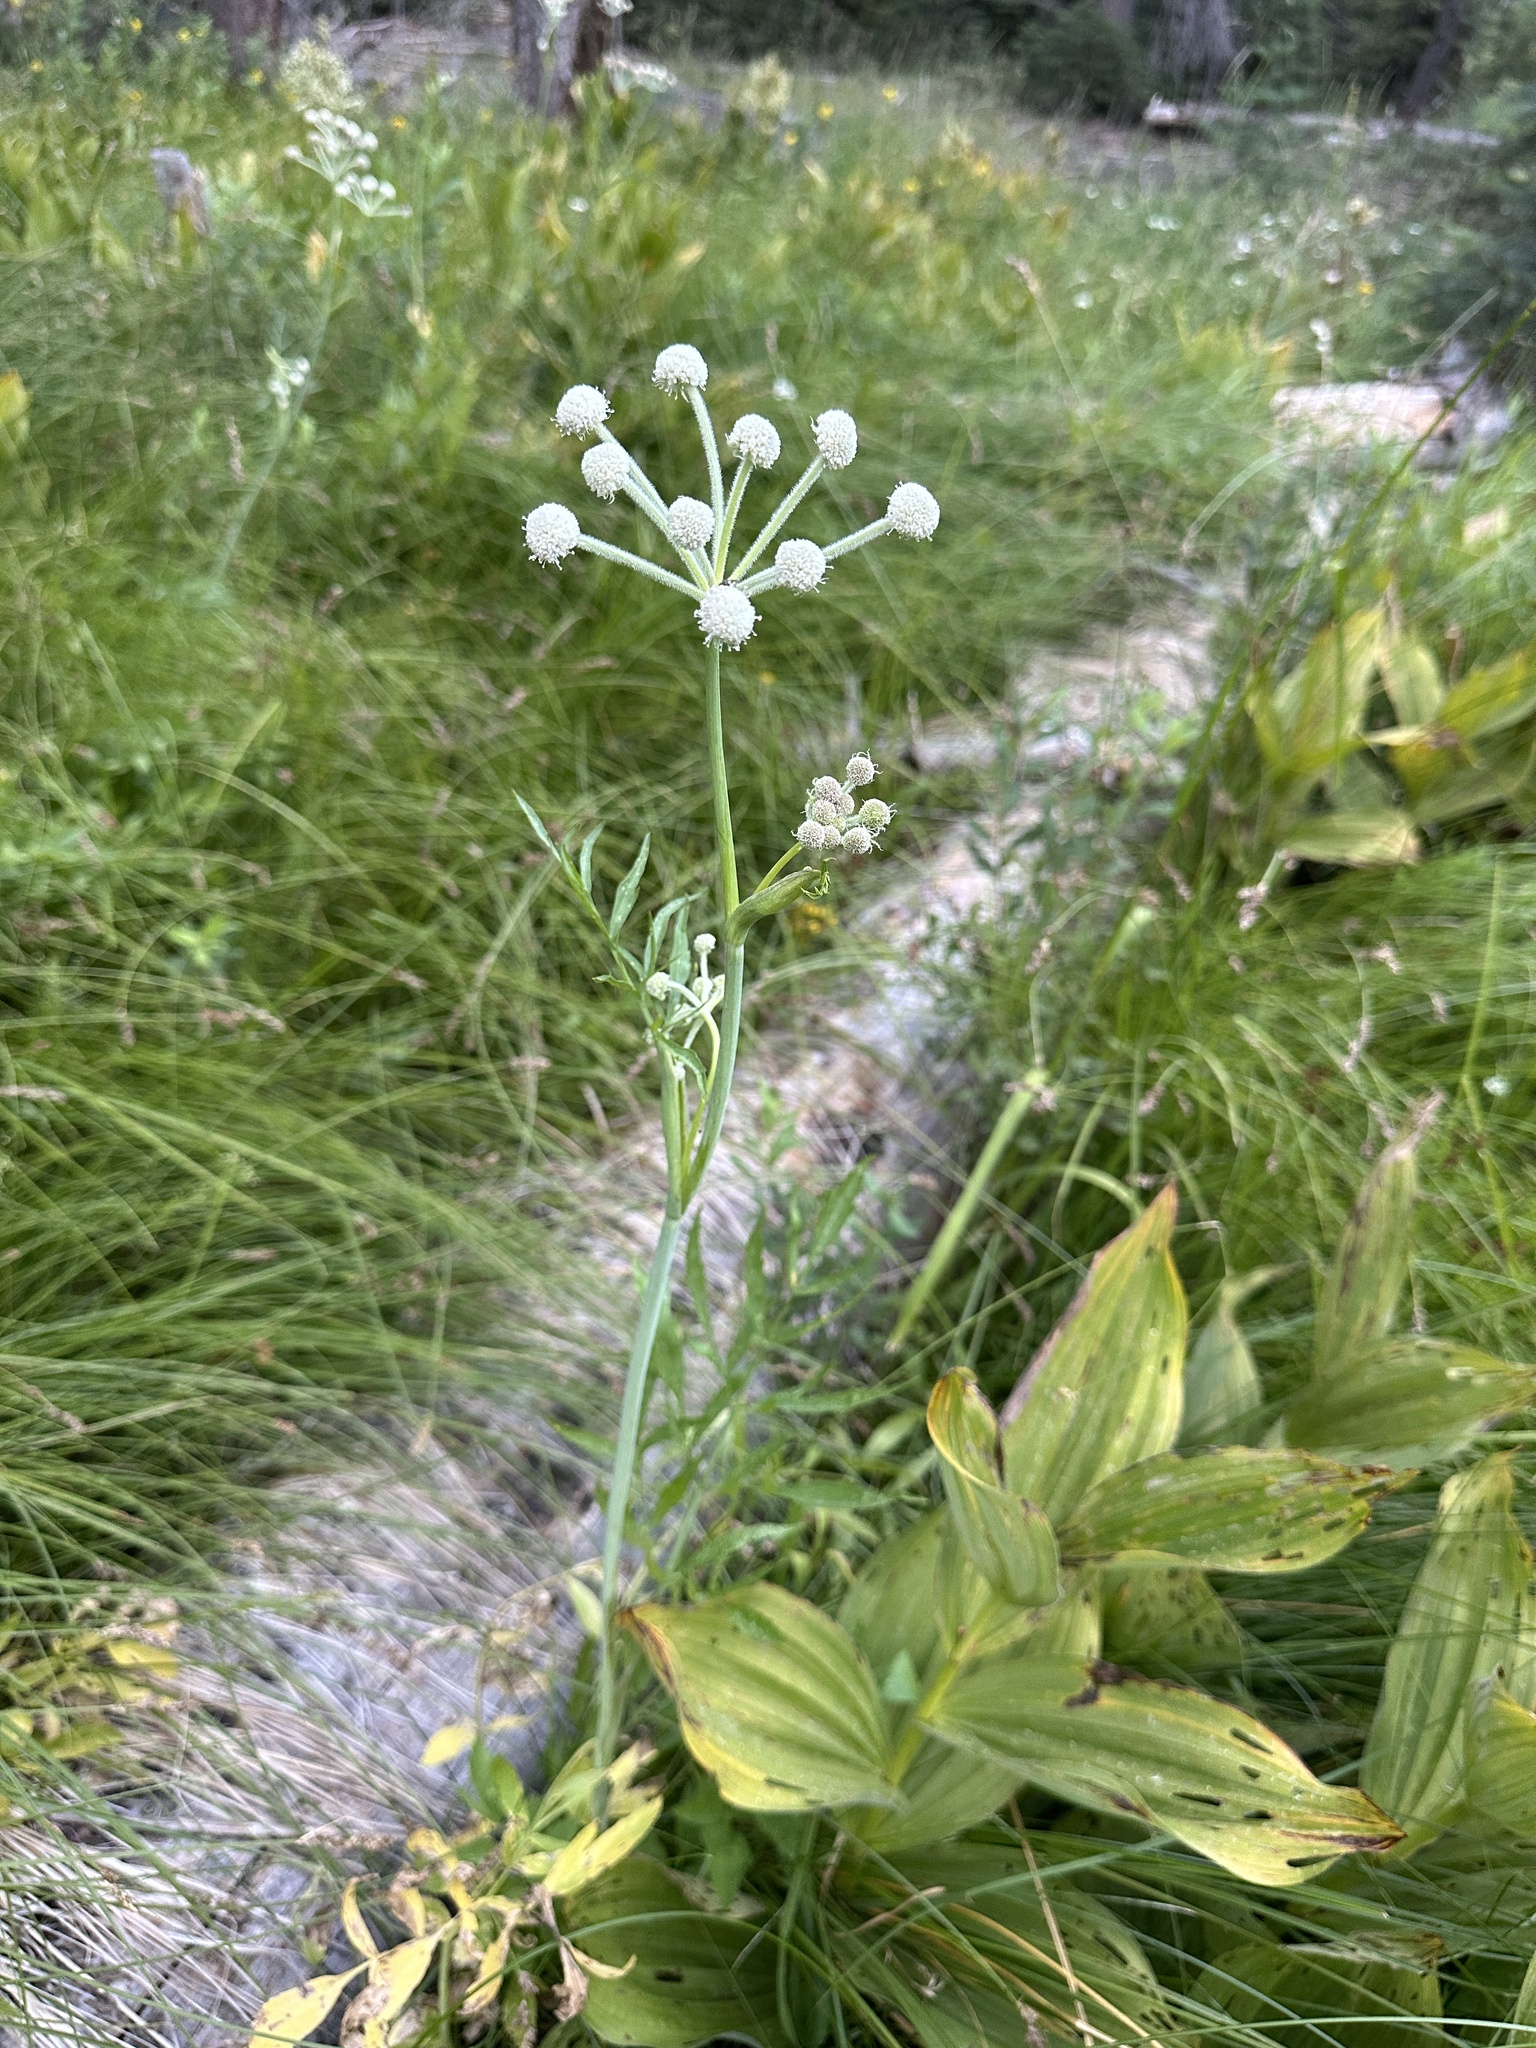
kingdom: Plantae
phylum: Tracheophyta
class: Magnoliopsida
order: Apiales
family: Apiaceae
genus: Angelica
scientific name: Angelica capitellata
